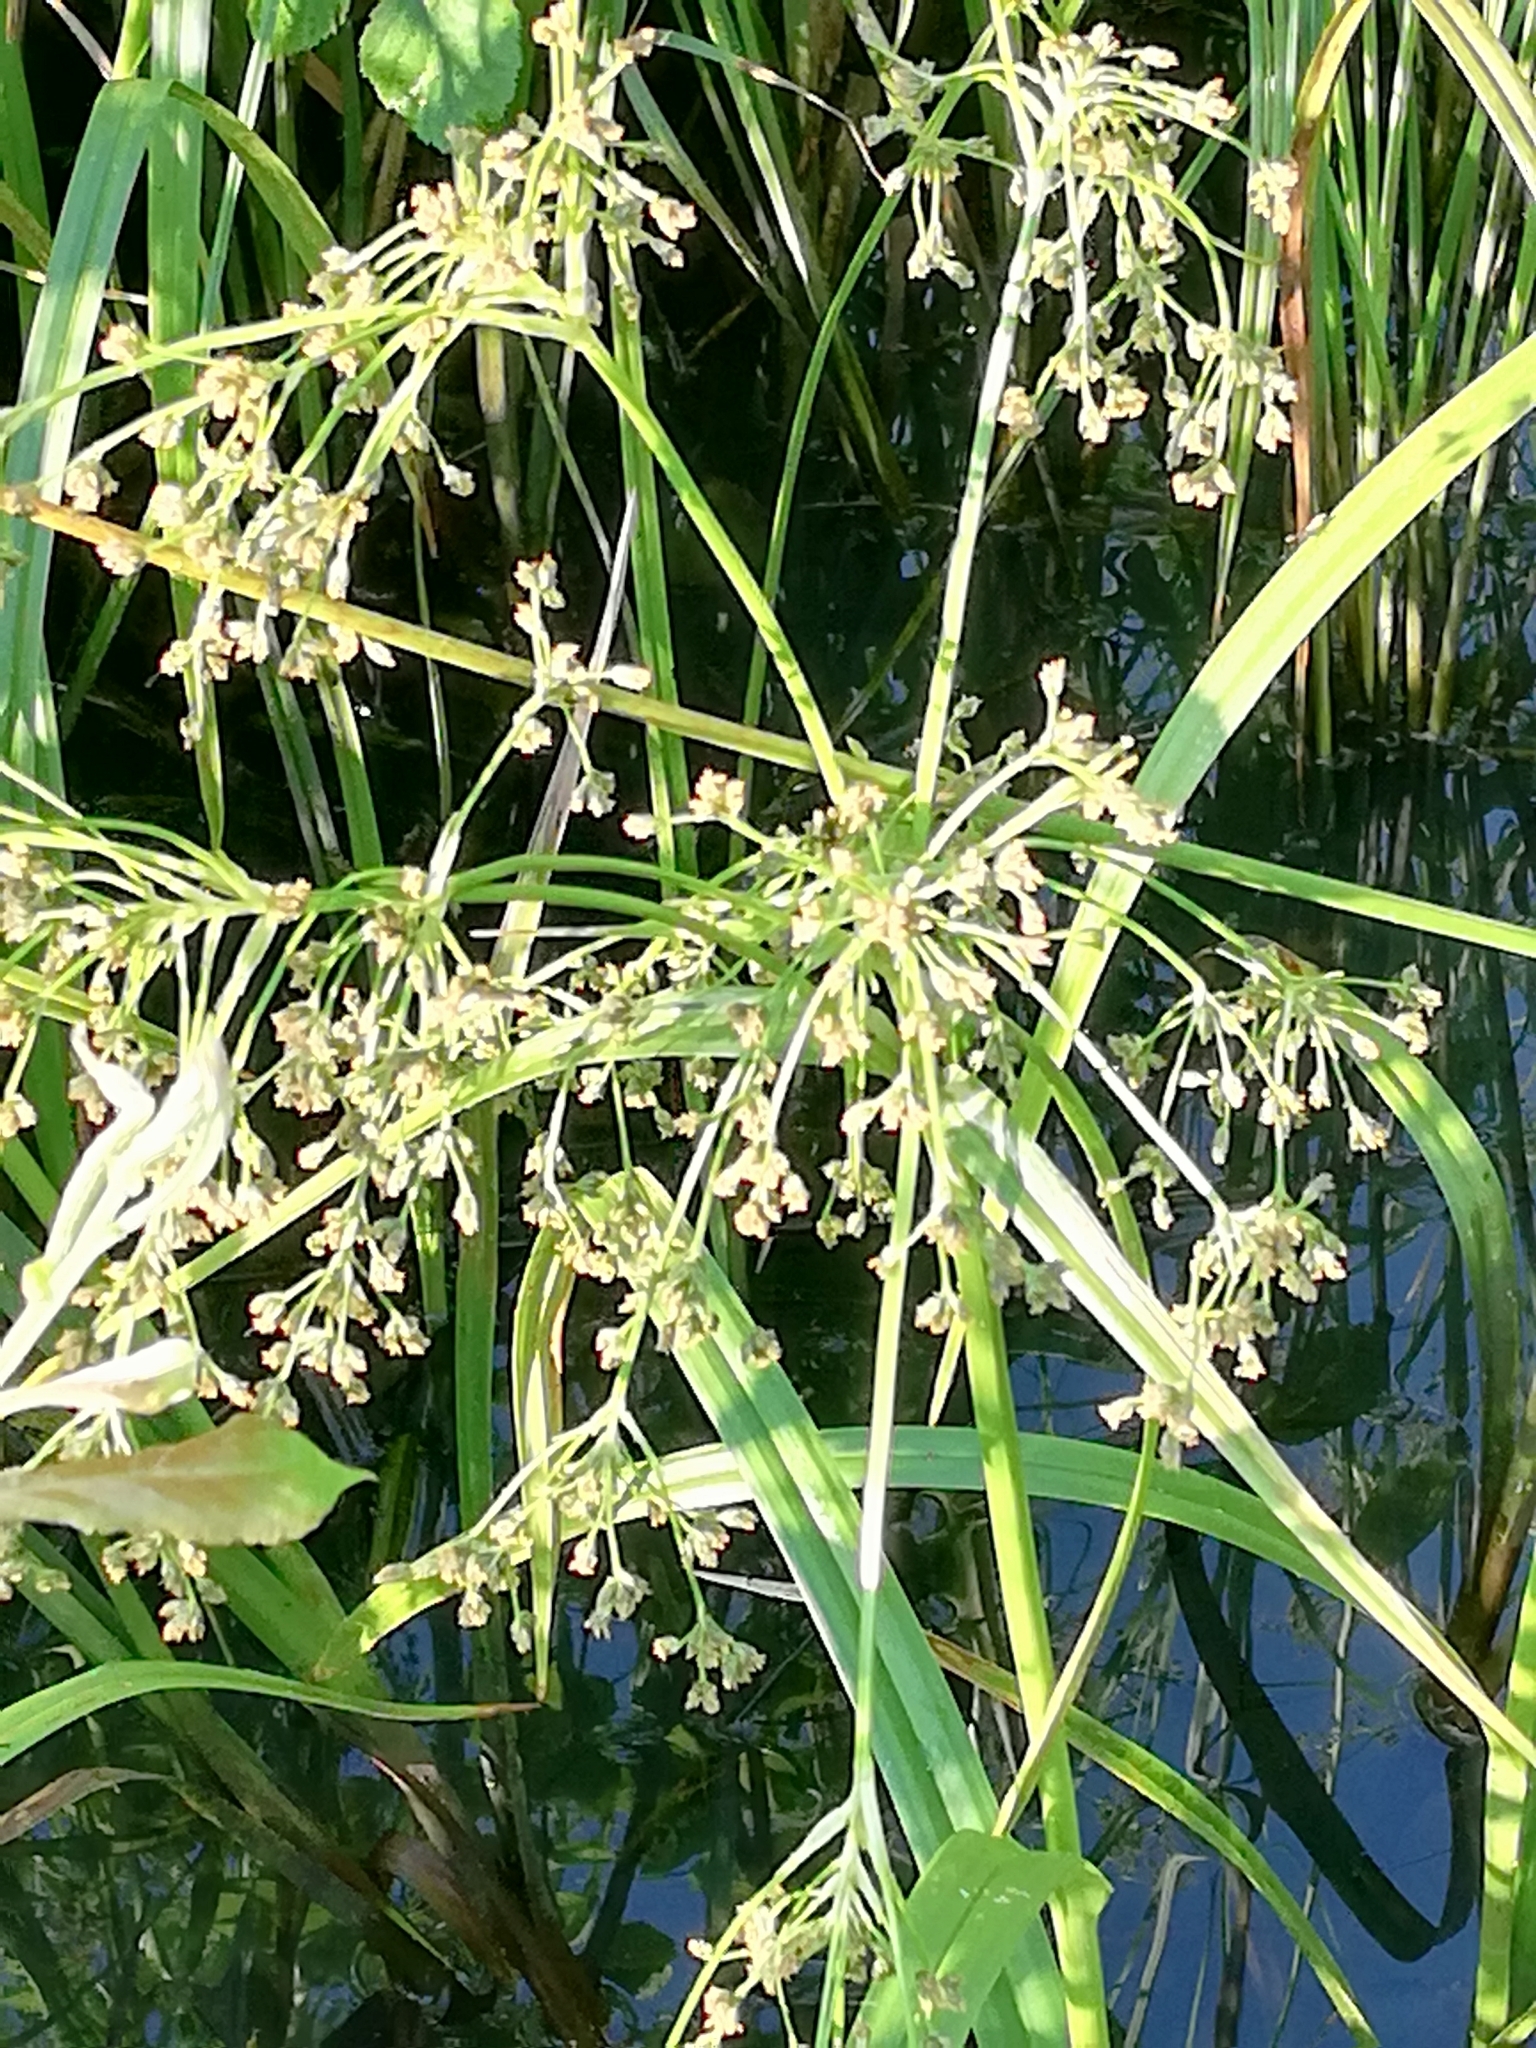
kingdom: Plantae
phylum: Tracheophyta
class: Liliopsida
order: Poales
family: Cyperaceae
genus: Scirpus
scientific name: Scirpus sylvaticus
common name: Wood club-rush
